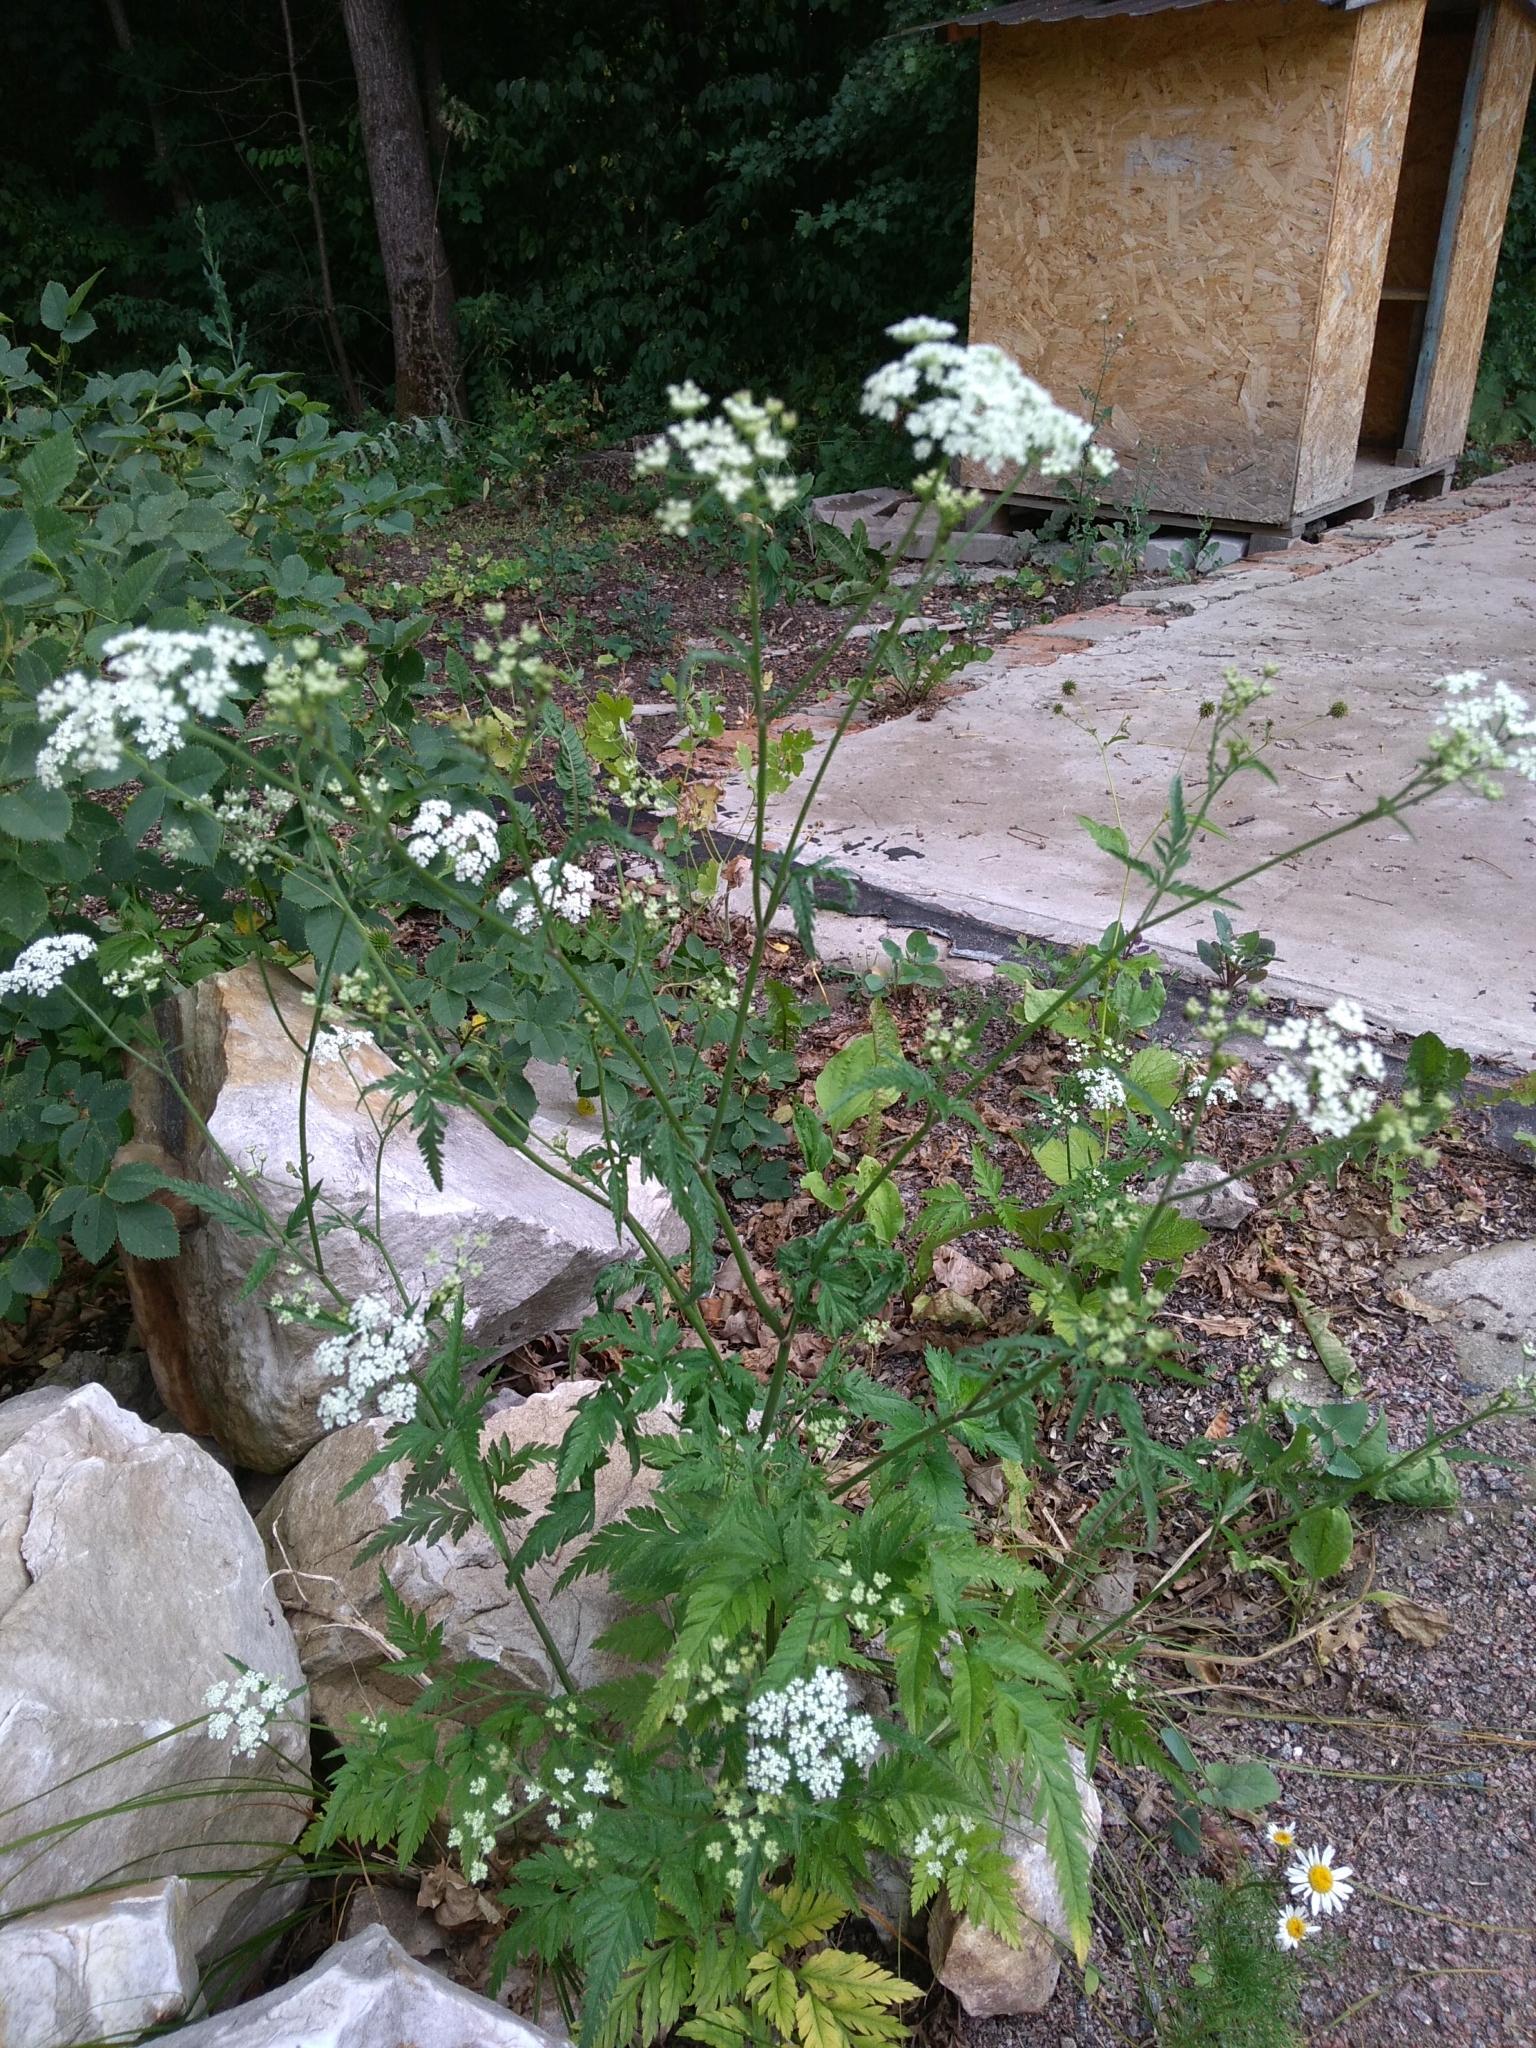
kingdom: Plantae
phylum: Tracheophyta
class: Magnoliopsida
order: Apiales
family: Apiaceae
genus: Torilis
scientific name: Torilis japonica
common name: Upright hedge-parsley
